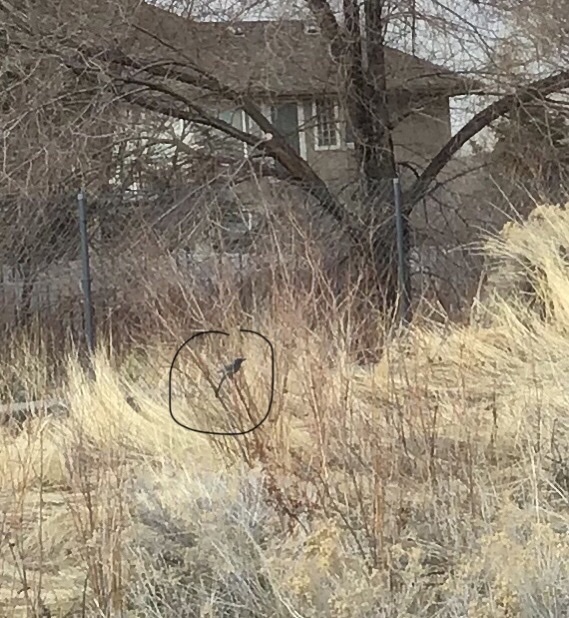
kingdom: Animalia
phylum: Chordata
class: Aves
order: Passeriformes
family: Corvidae
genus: Aphelocoma
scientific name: Aphelocoma woodhouseii
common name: Woodhouse's scrub-jay
